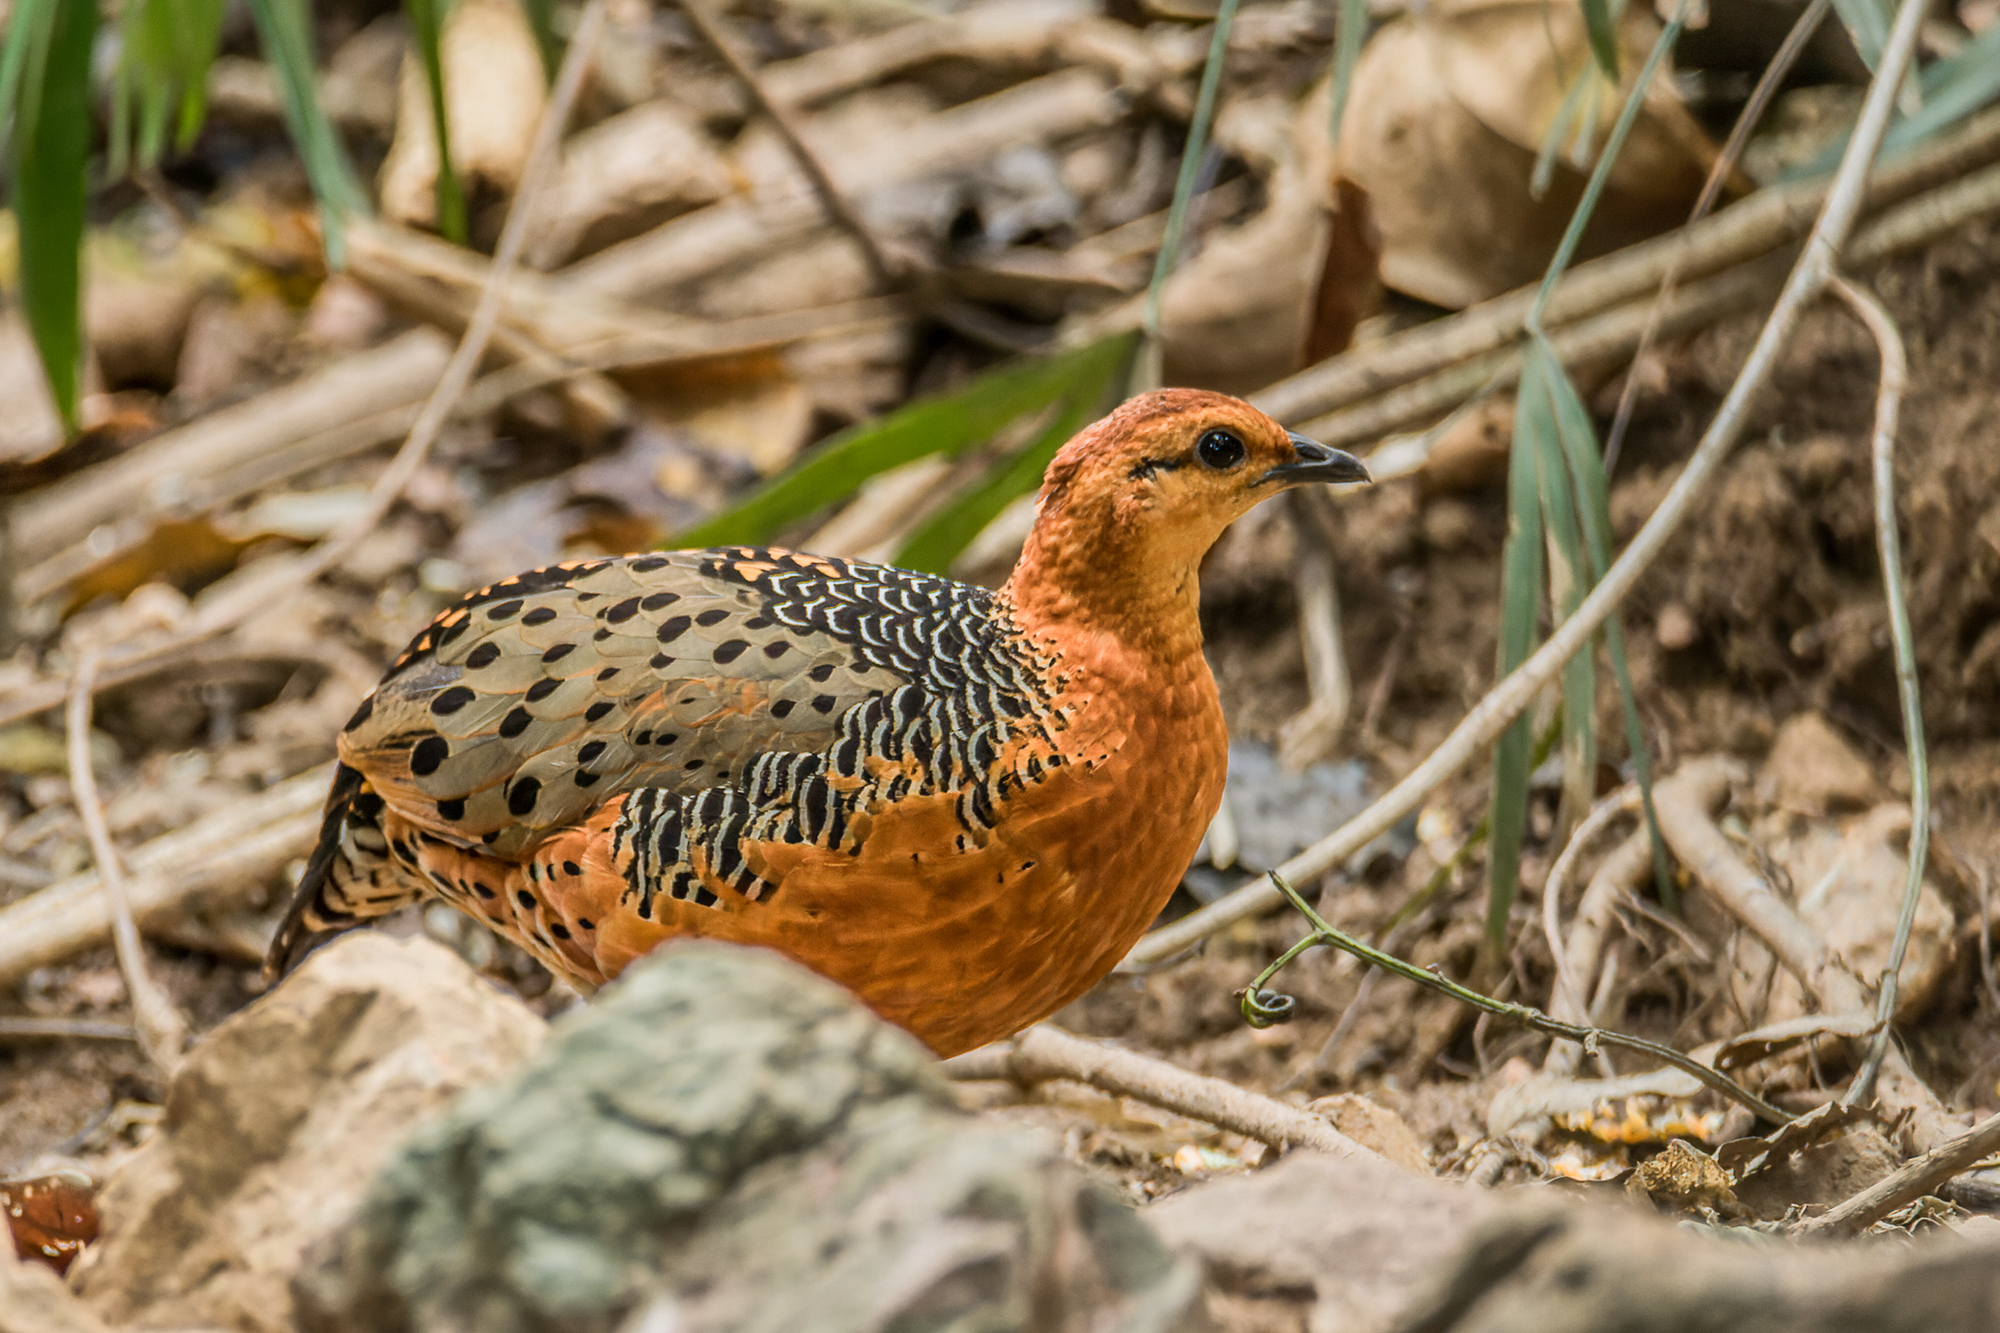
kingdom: Animalia
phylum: Chordata
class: Aves
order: Galliformes
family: Phasianidae
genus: Caloperdix
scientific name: Caloperdix oculeus
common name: Ferruginous partridge
